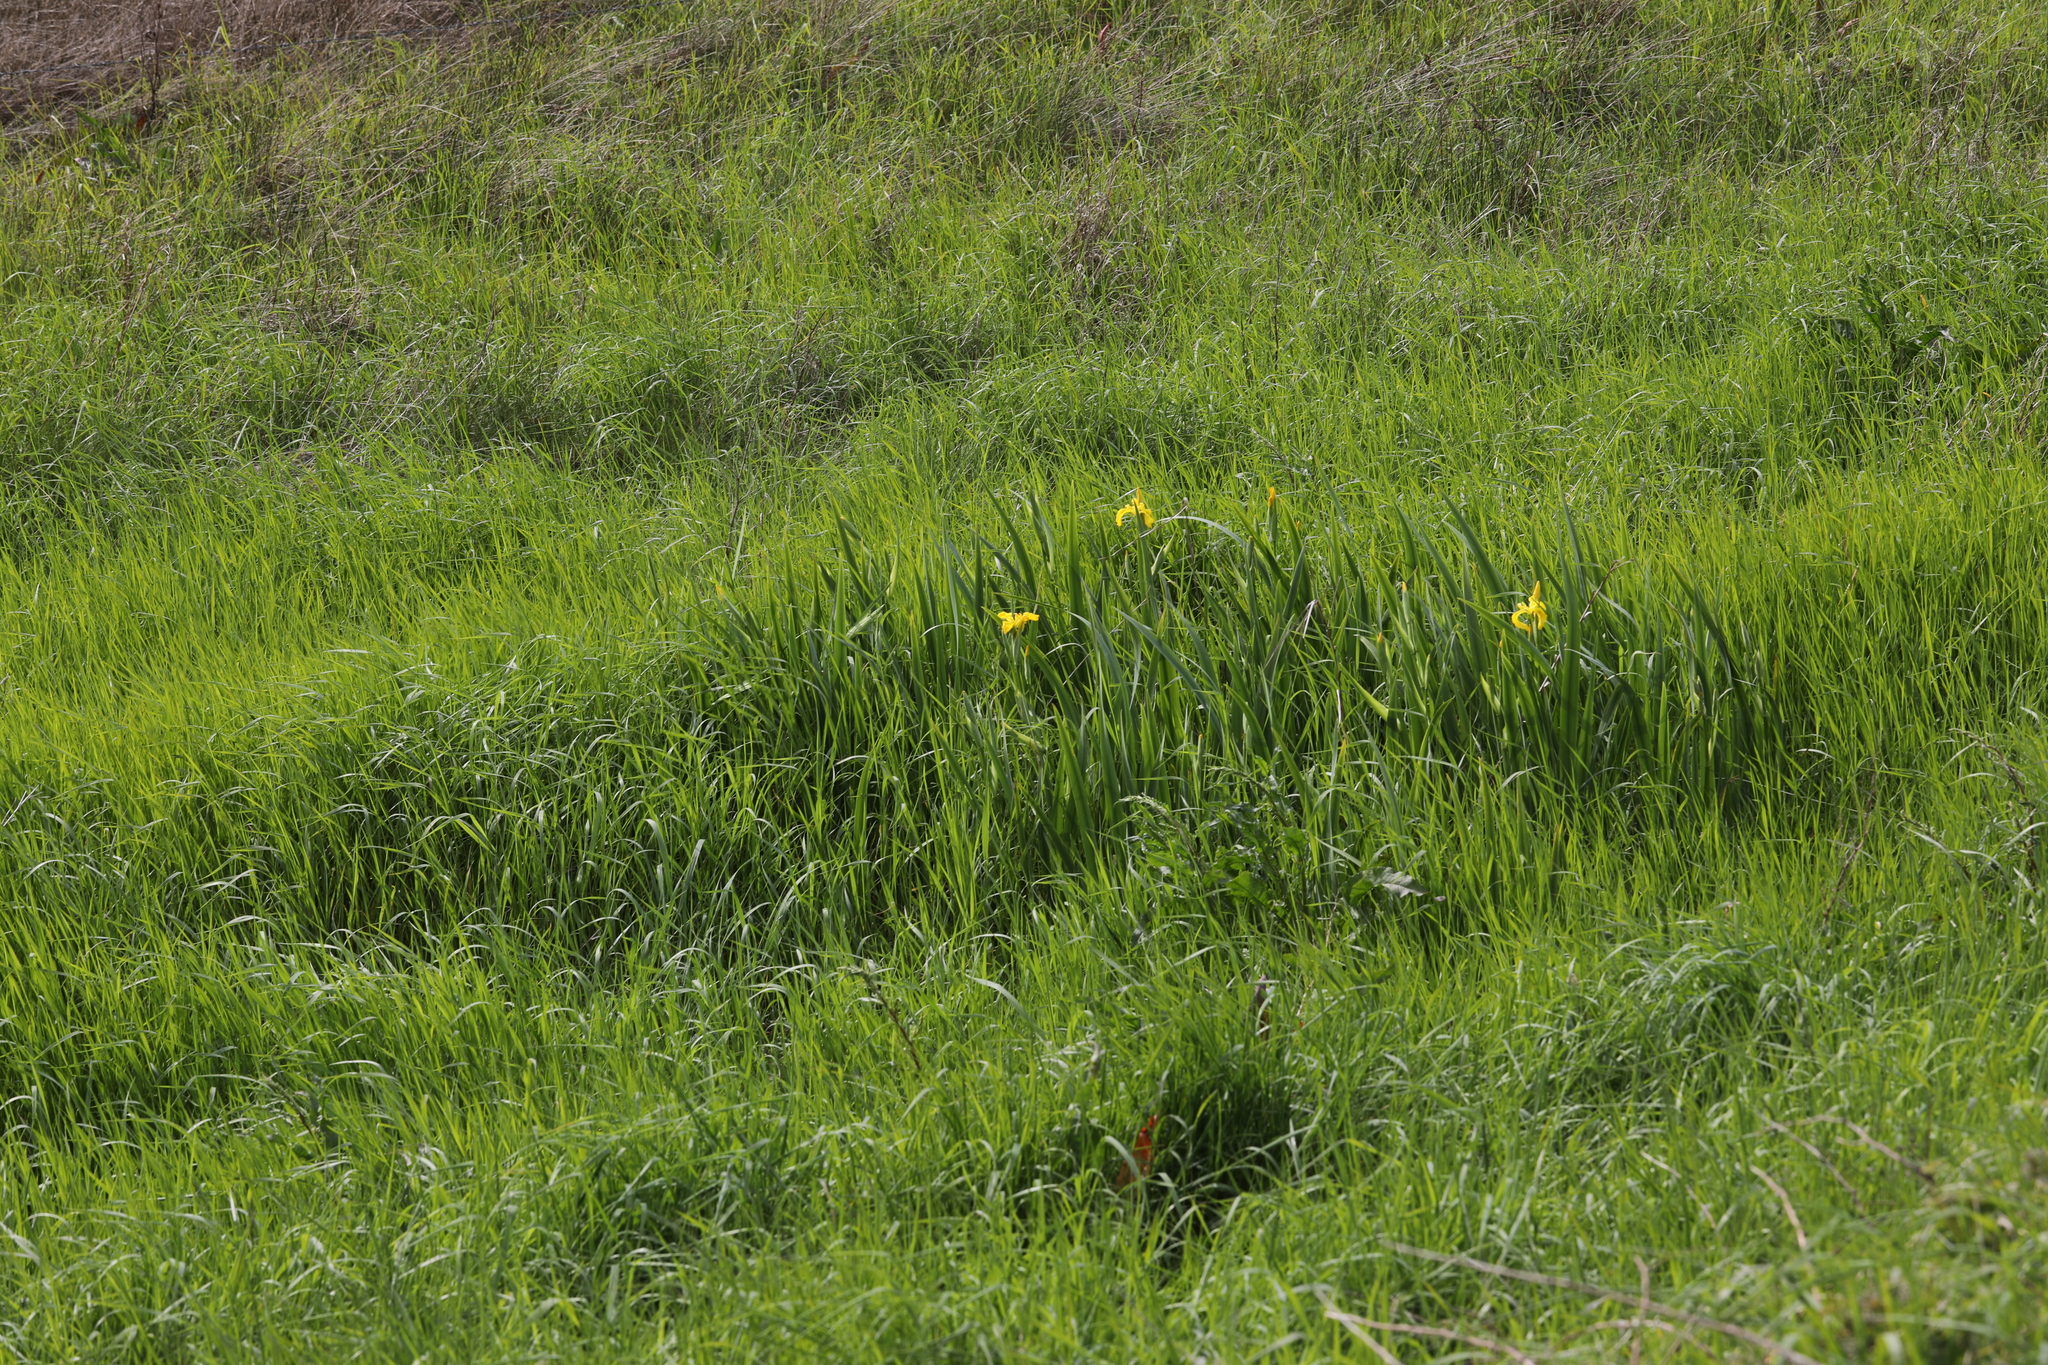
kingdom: Plantae
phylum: Tracheophyta
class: Liliopsida
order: Asparagales
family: Iridaceae
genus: Iris
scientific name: Iris pseudacorus
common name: Yellow flag
